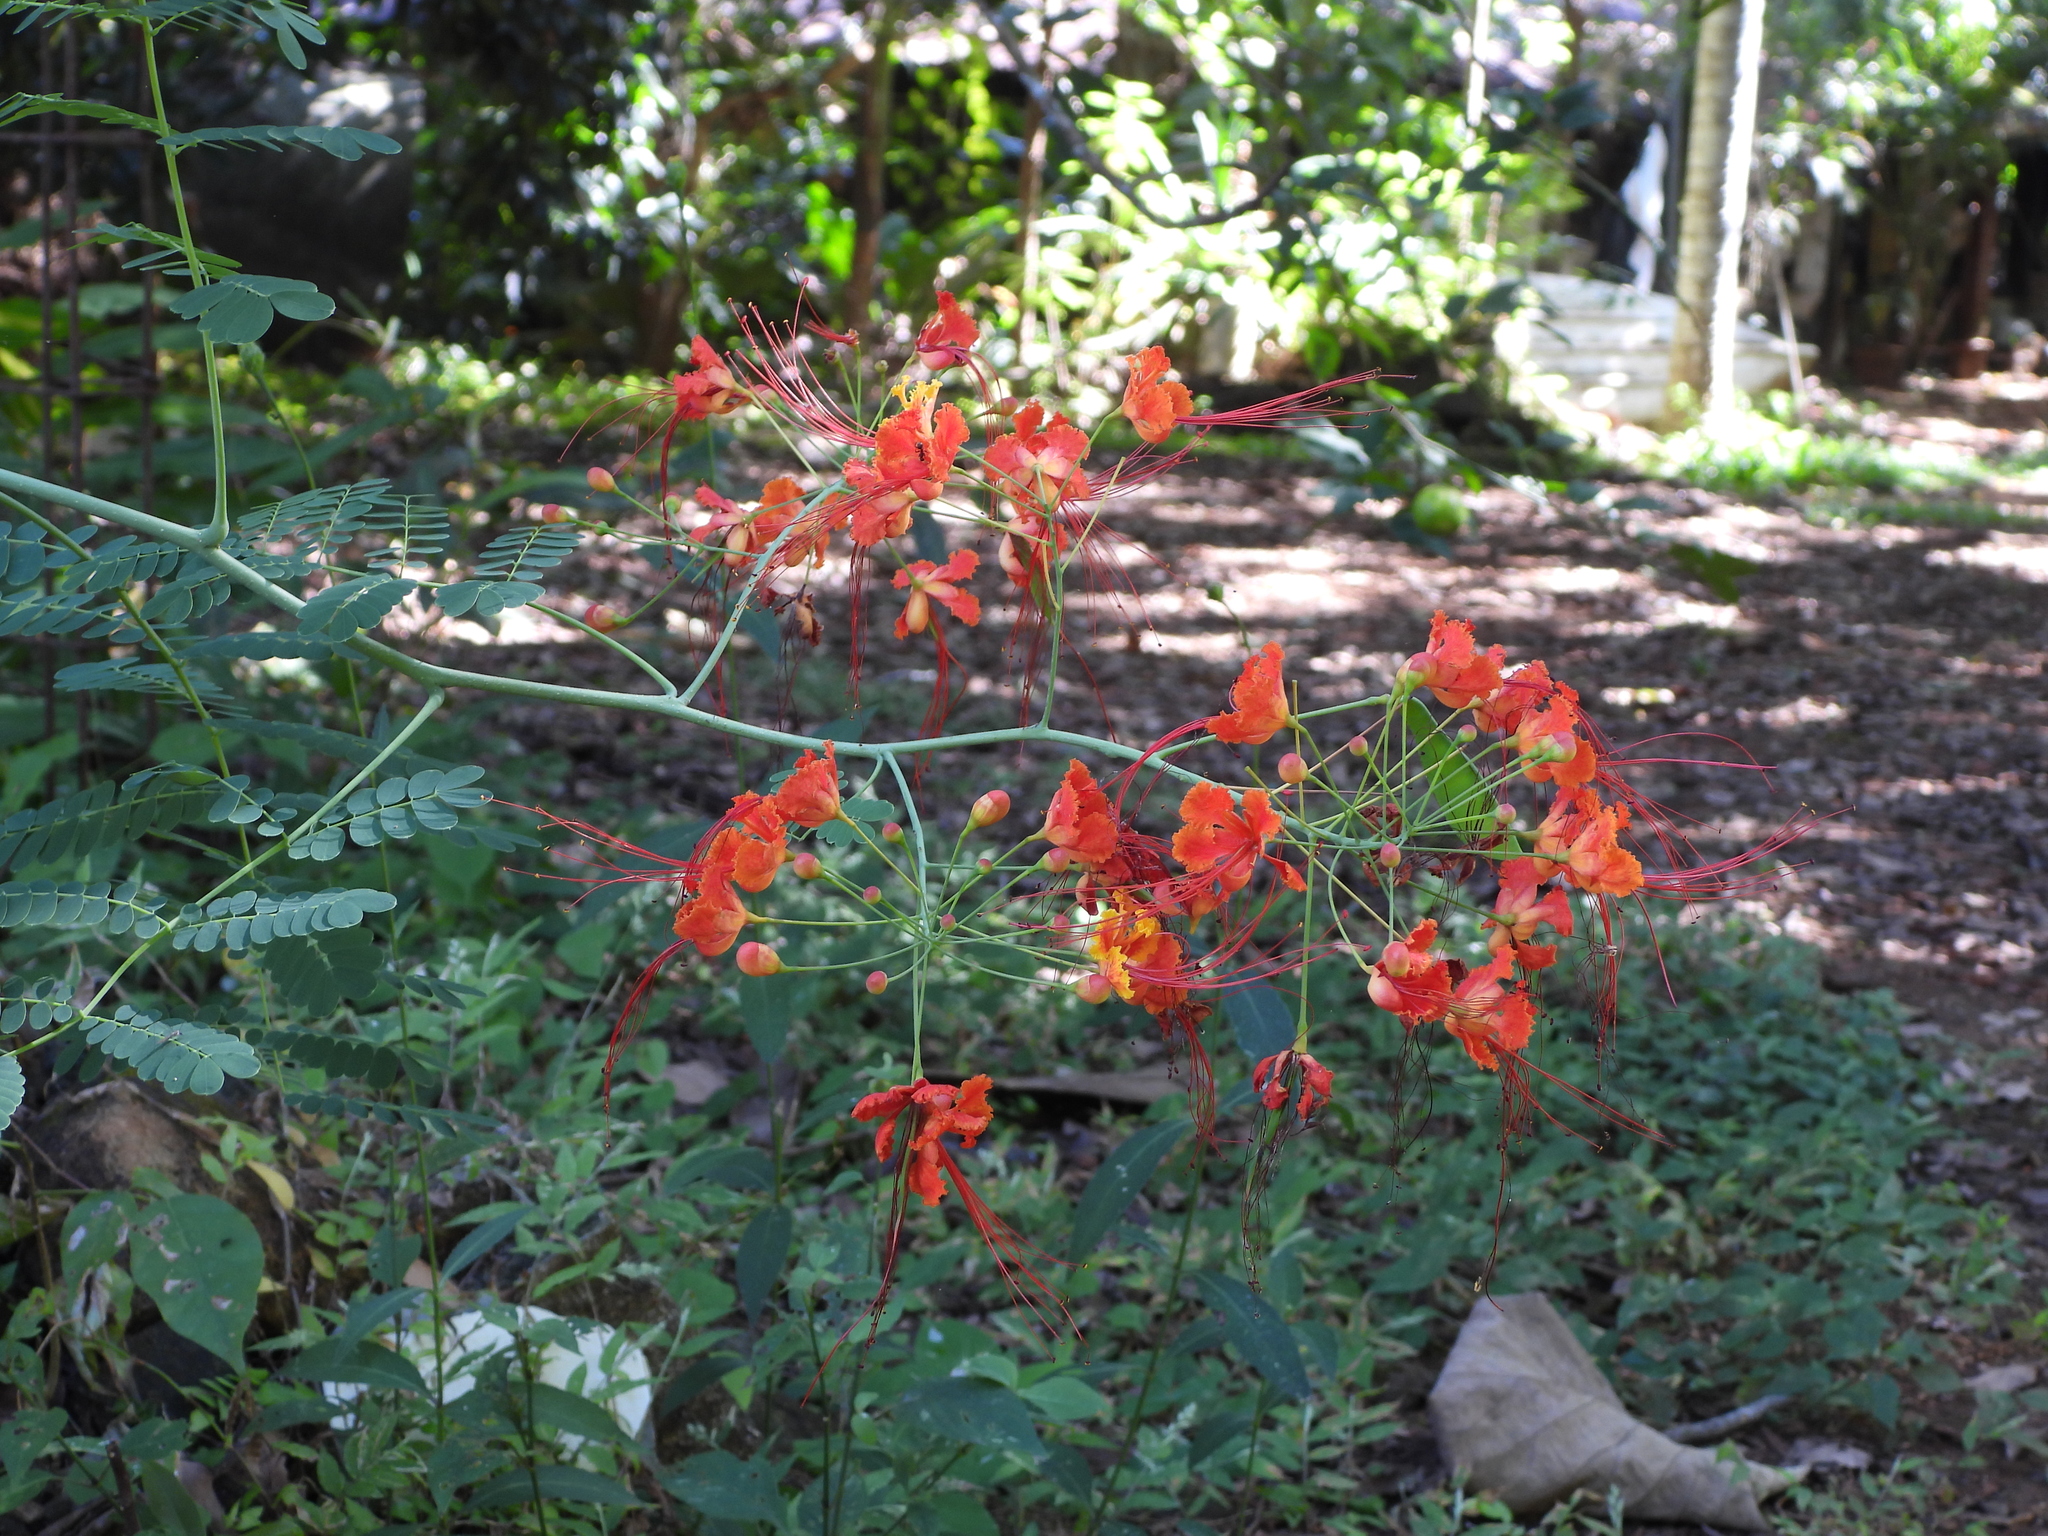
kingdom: Plantae
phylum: Tracheophyta
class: Magnoliopsida
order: Fabales
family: Fabaceae
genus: Caesalpinia
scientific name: Caesalpinia pulcherrima
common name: Pride-of-barbados
